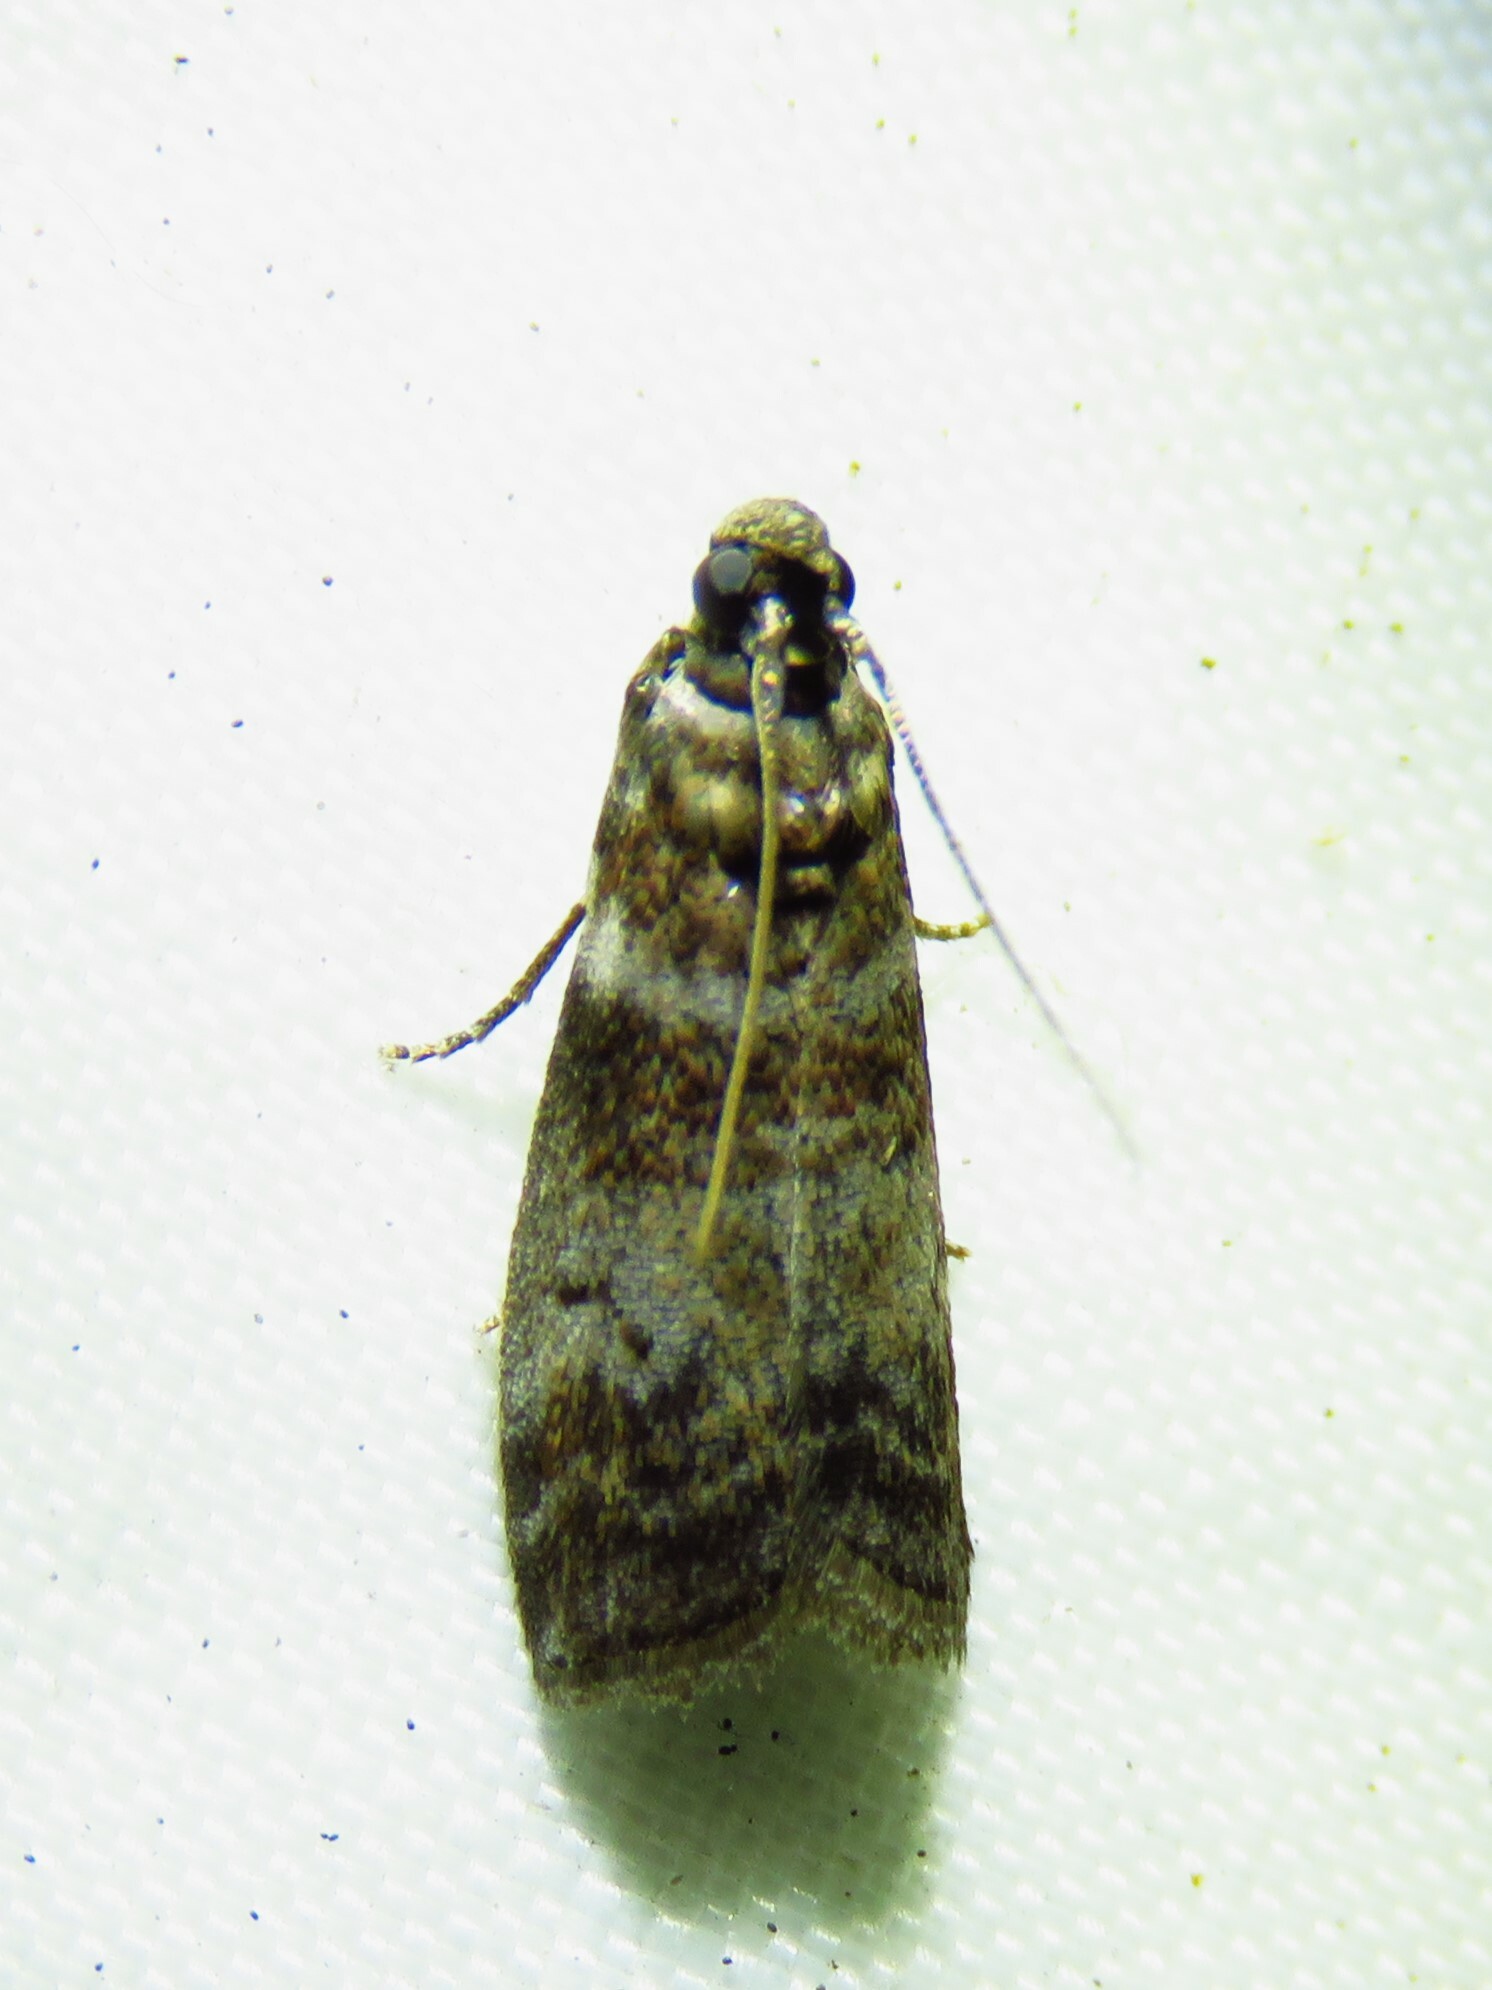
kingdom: Animalia
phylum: Arthropoda
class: Insecta
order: Lepidoptera
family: Pyralidae
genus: Sciota
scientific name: Sciota uvinella
